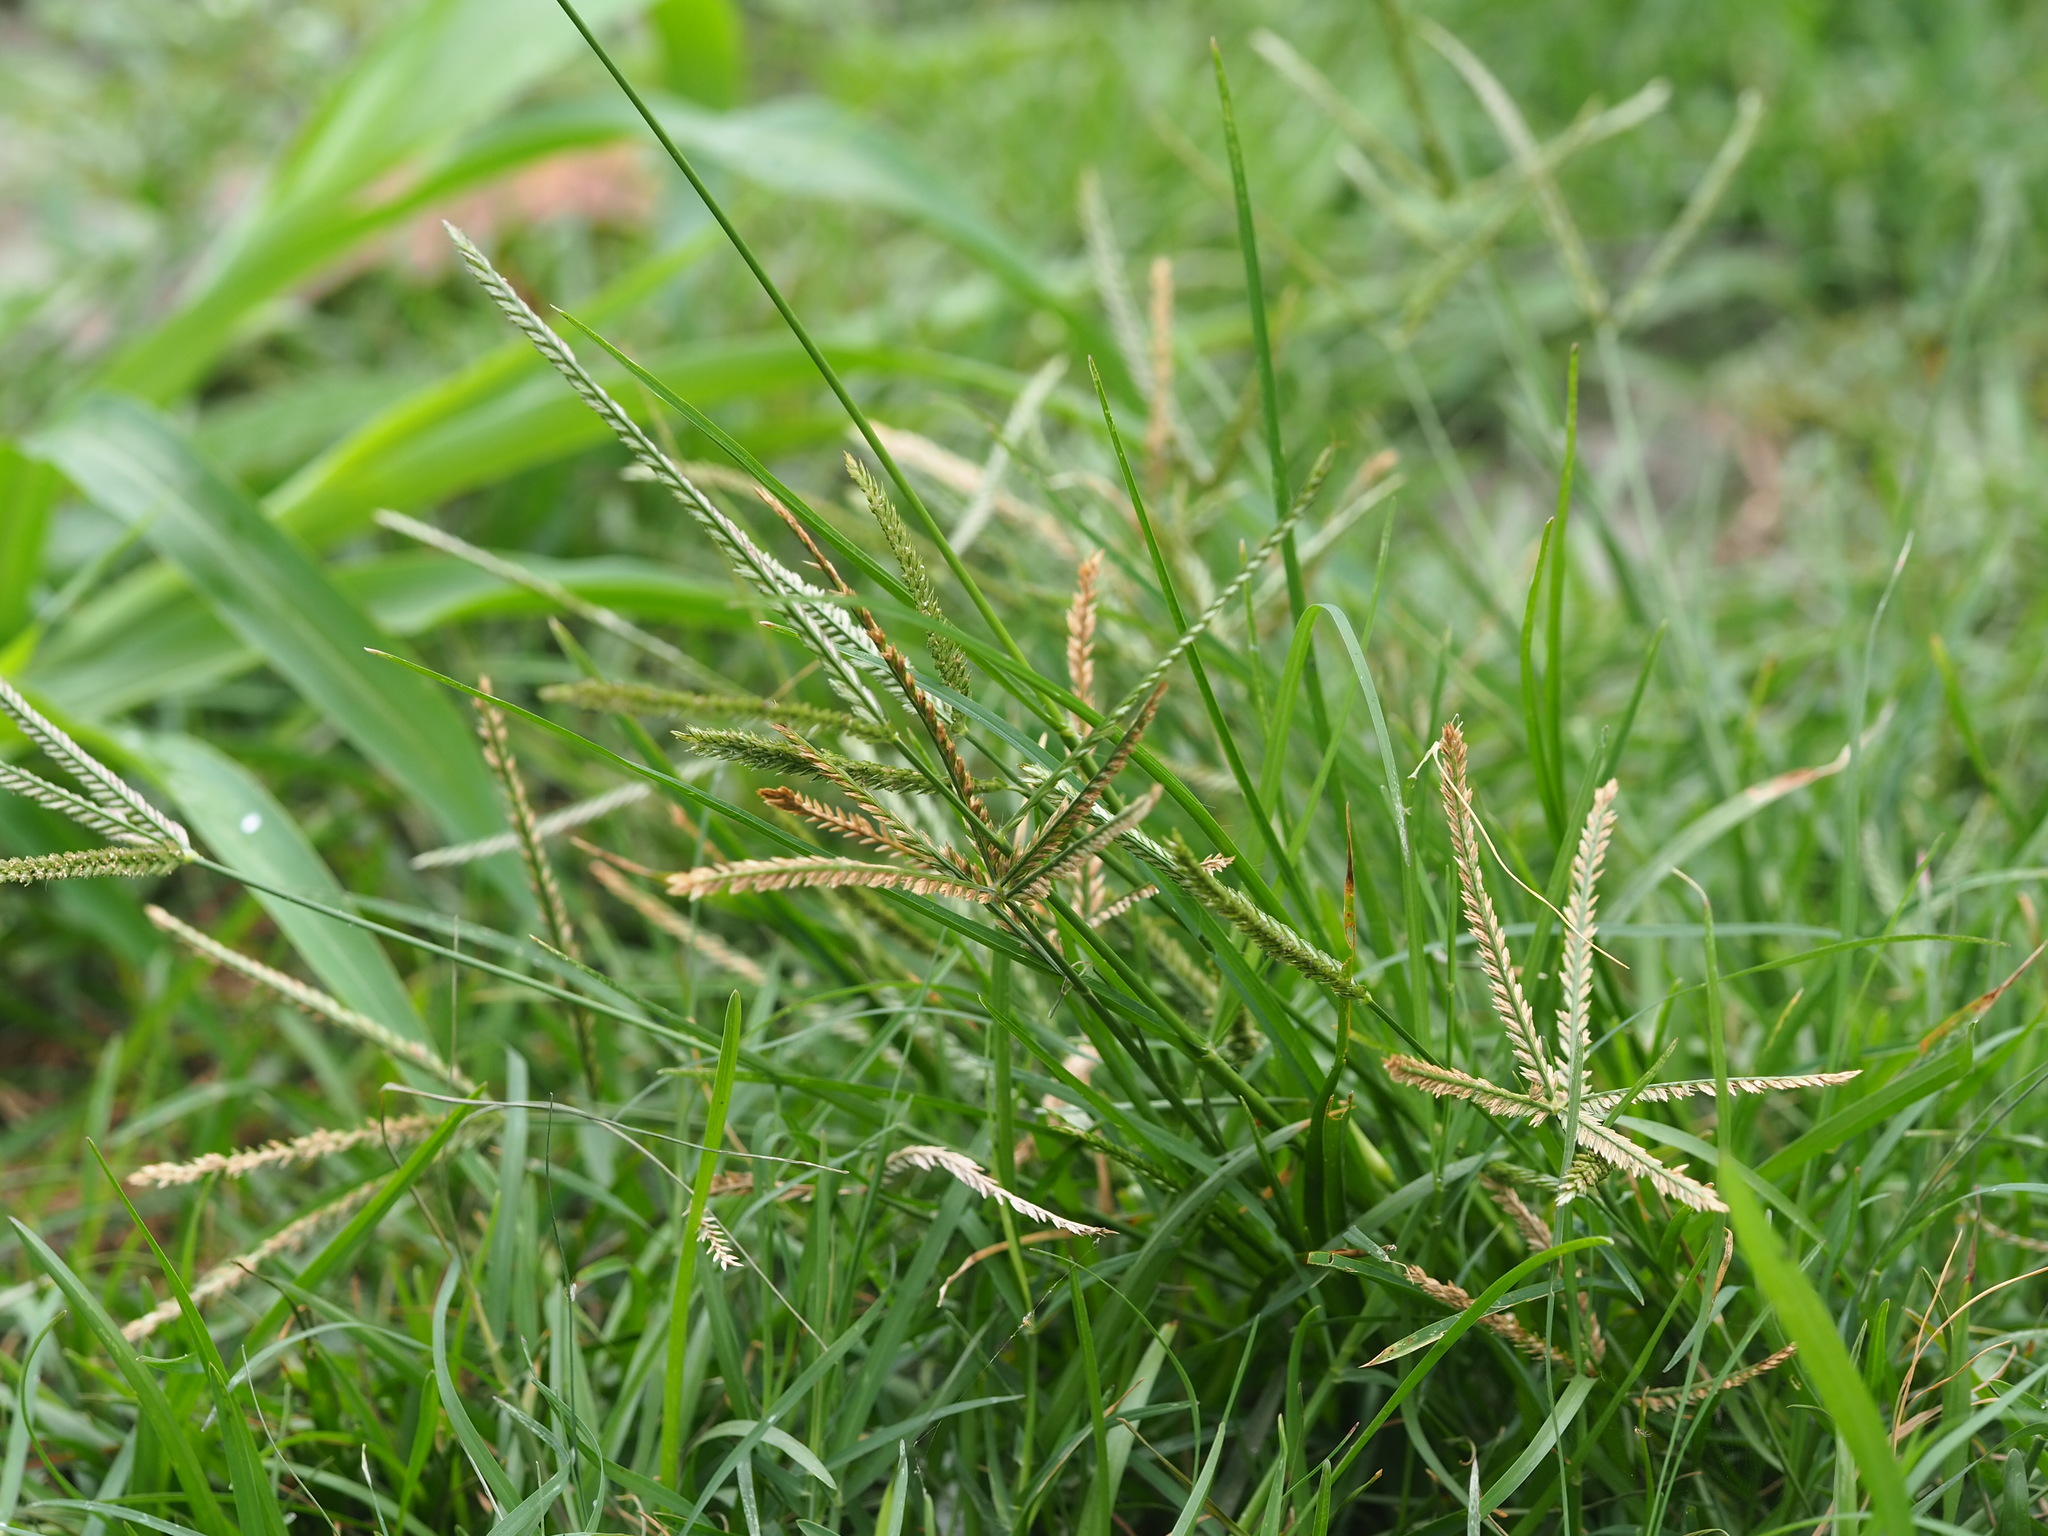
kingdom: Plantae
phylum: Tracheophyta
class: Liliopsida
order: Poales
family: Poaceae
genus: Eleusine
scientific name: Eleusine indica
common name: Yard-grass
